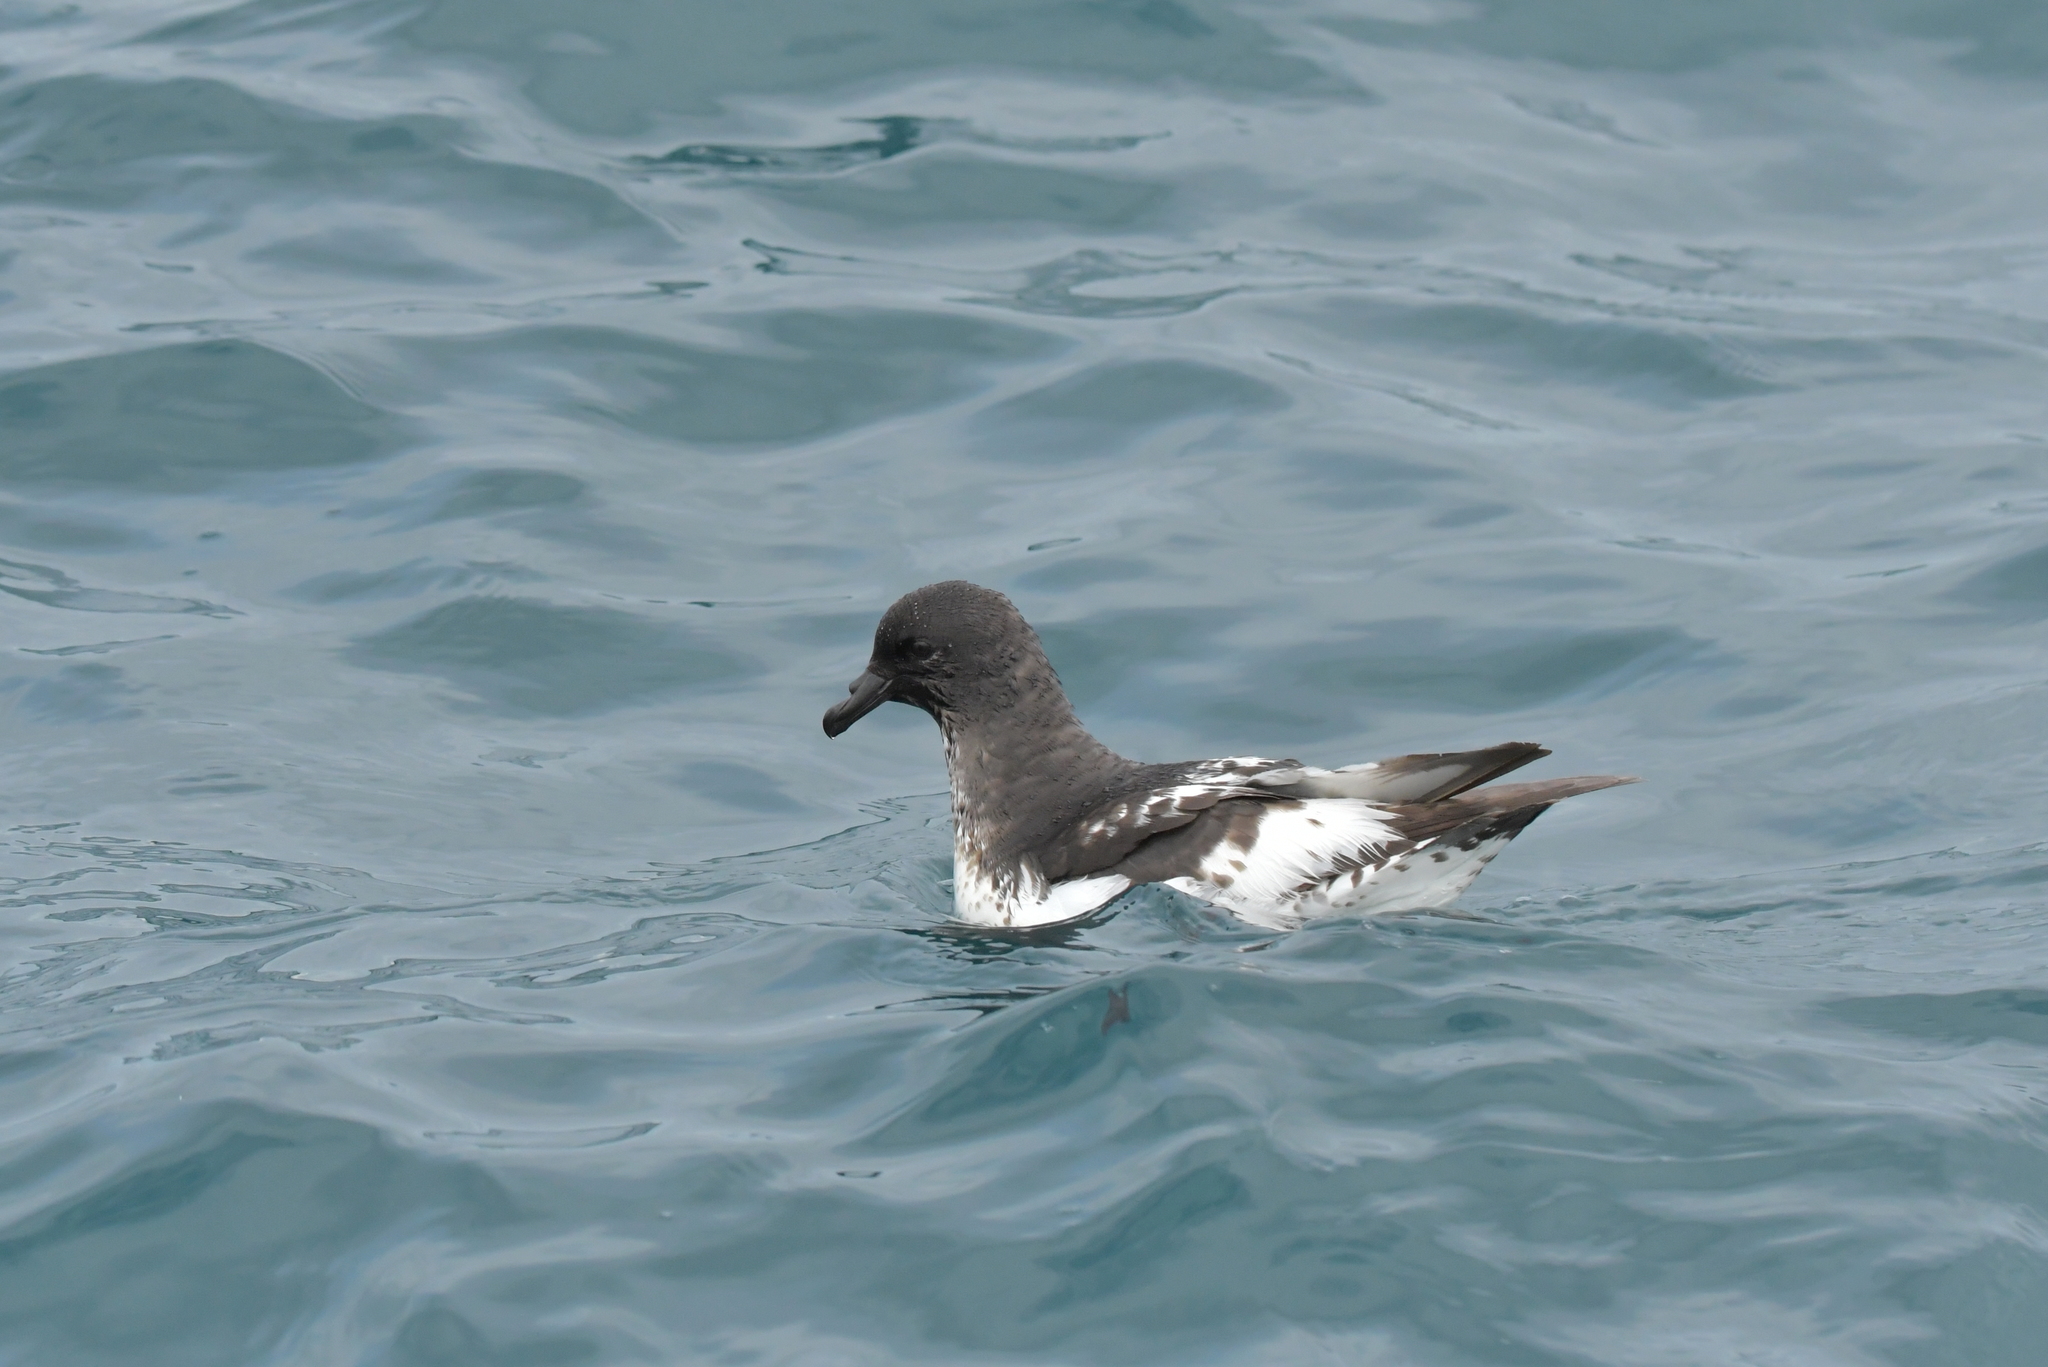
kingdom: Animalia
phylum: Chordata
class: Aves
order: Procellariiformes
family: Procellariidae
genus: Daption
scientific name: Daption capense
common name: Cape petrel
